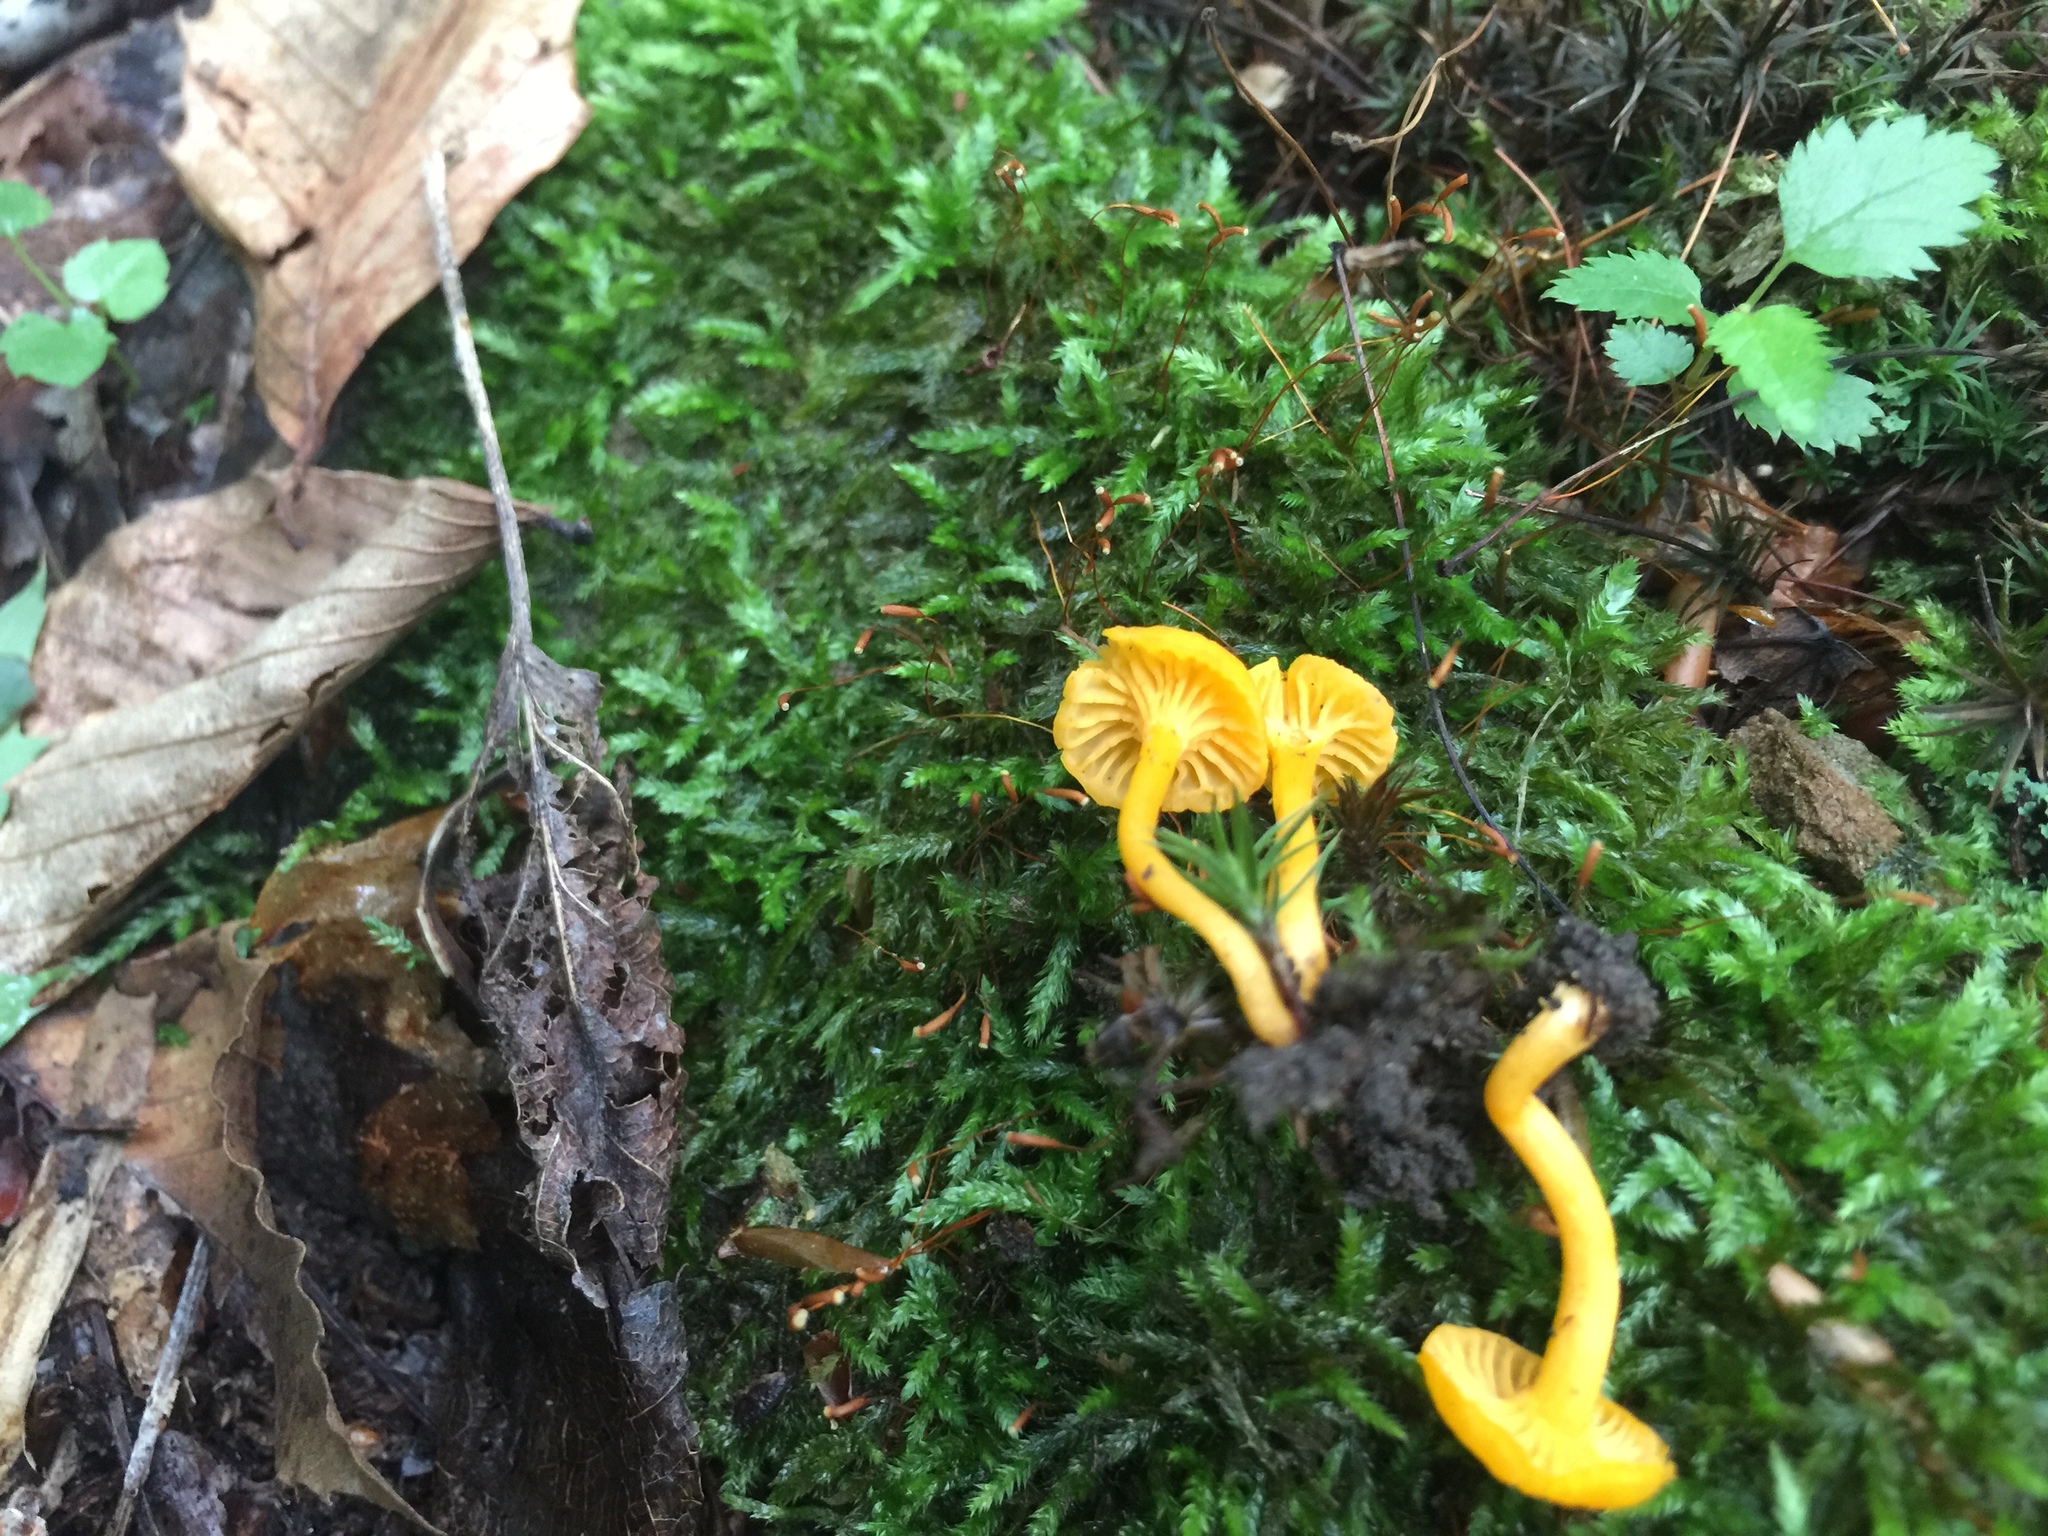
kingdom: Fungi
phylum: Basidiomycota
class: Agaricomycetes
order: Cantharellales
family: Hydnaceae
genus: Cantharellus
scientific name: Cantharellus minor
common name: Small chanterelle
